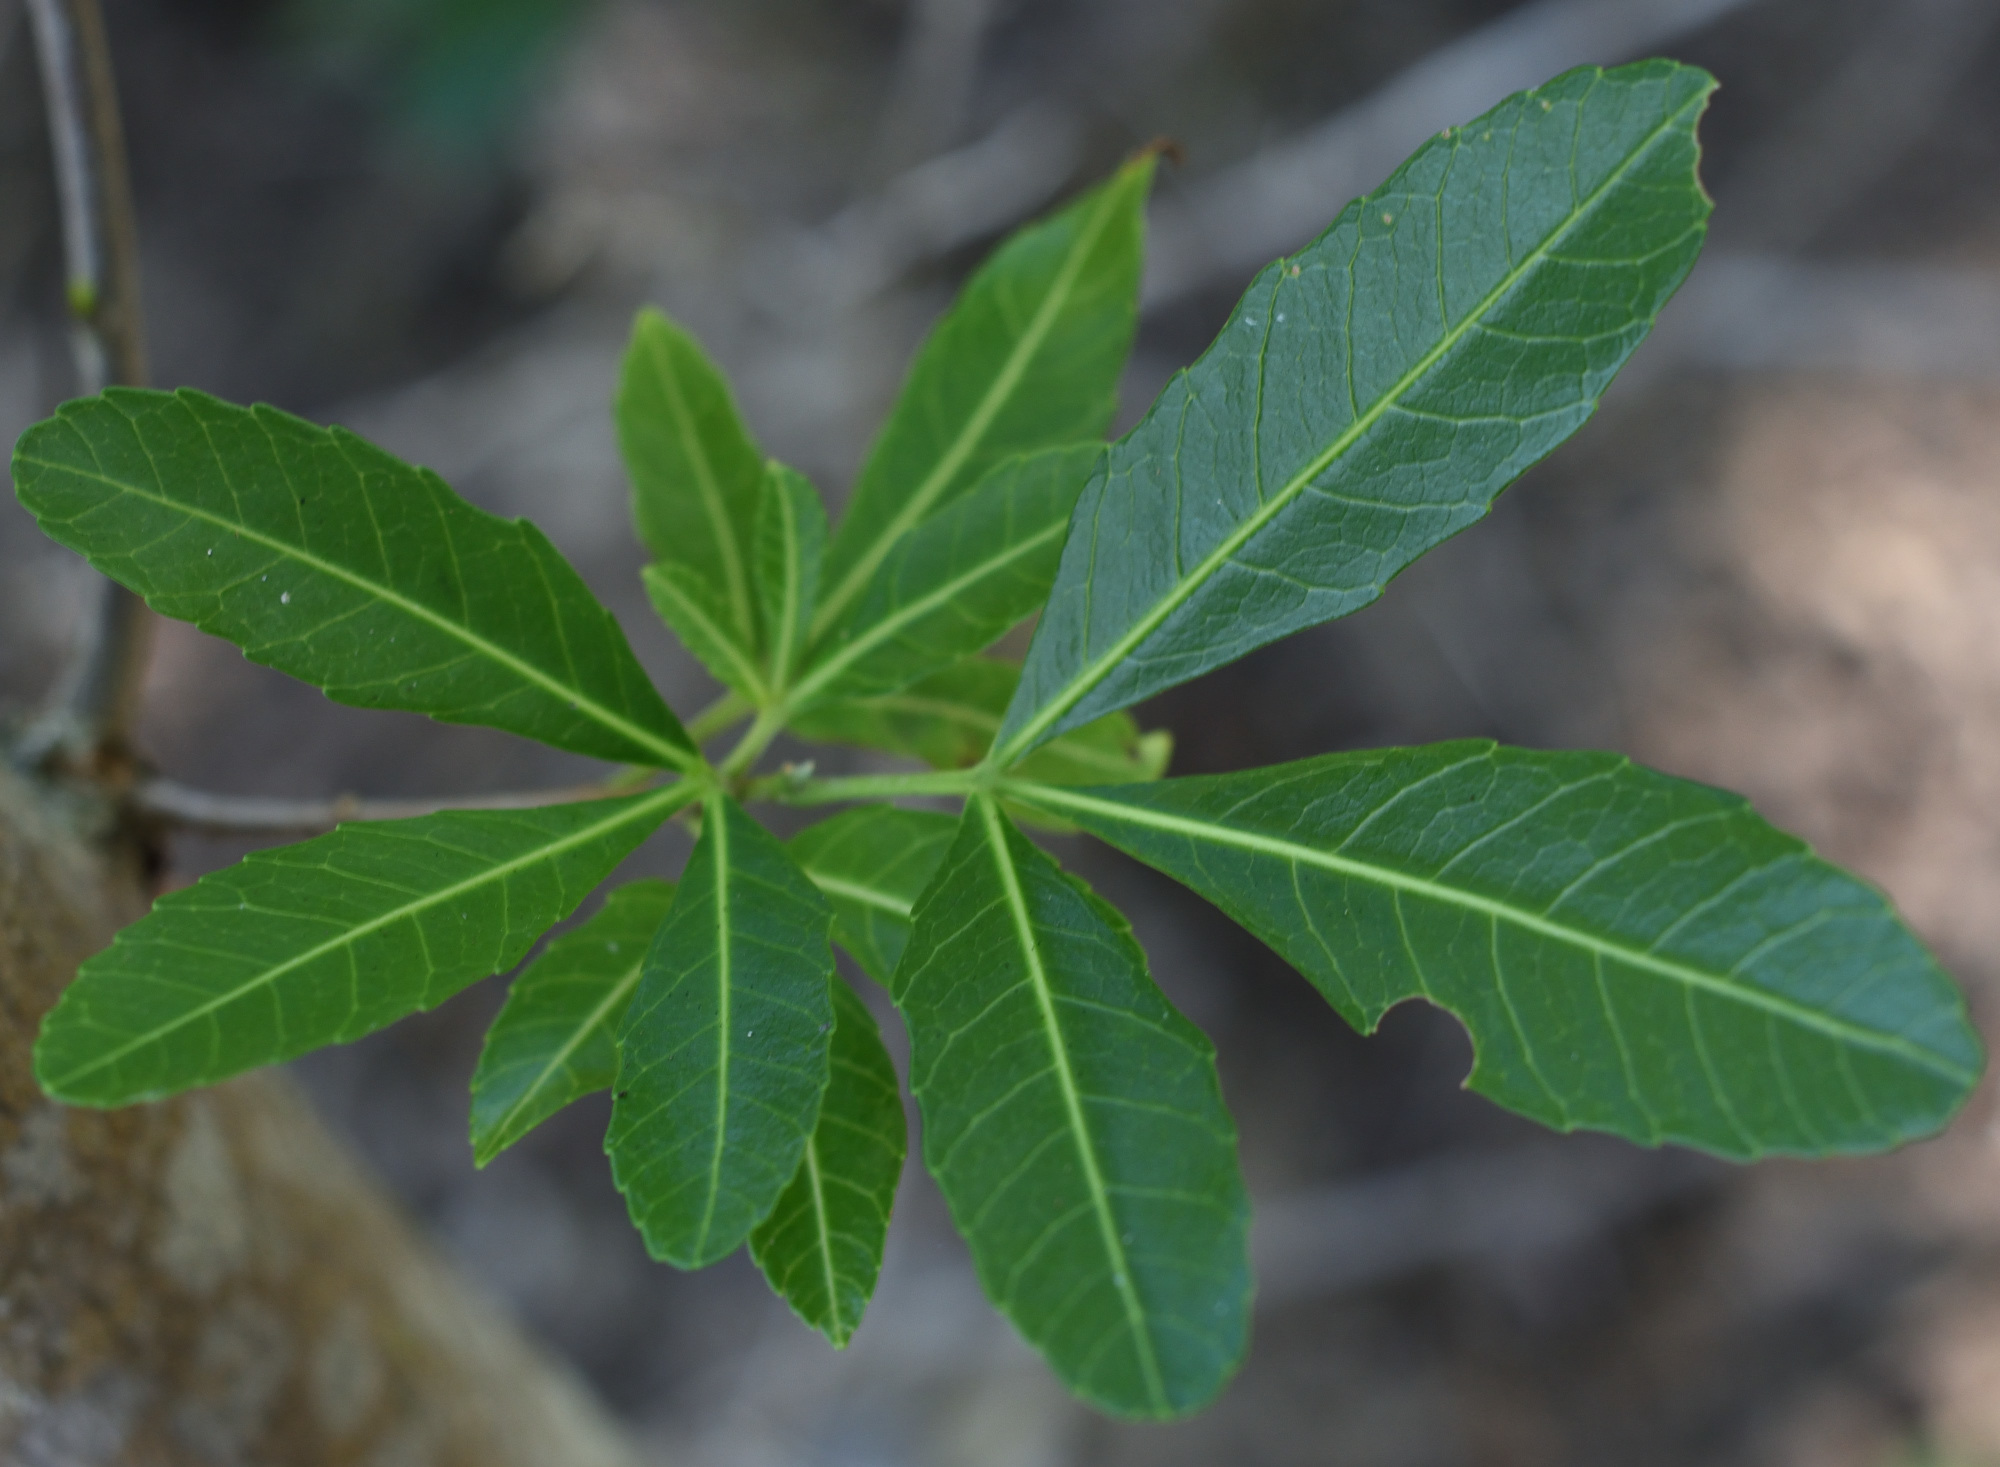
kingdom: Plantae
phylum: Tracheophyta
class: Magnoliopsida
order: Sapindales
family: Sapindaceae
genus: Allophylus
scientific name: Allophylus natalensis
